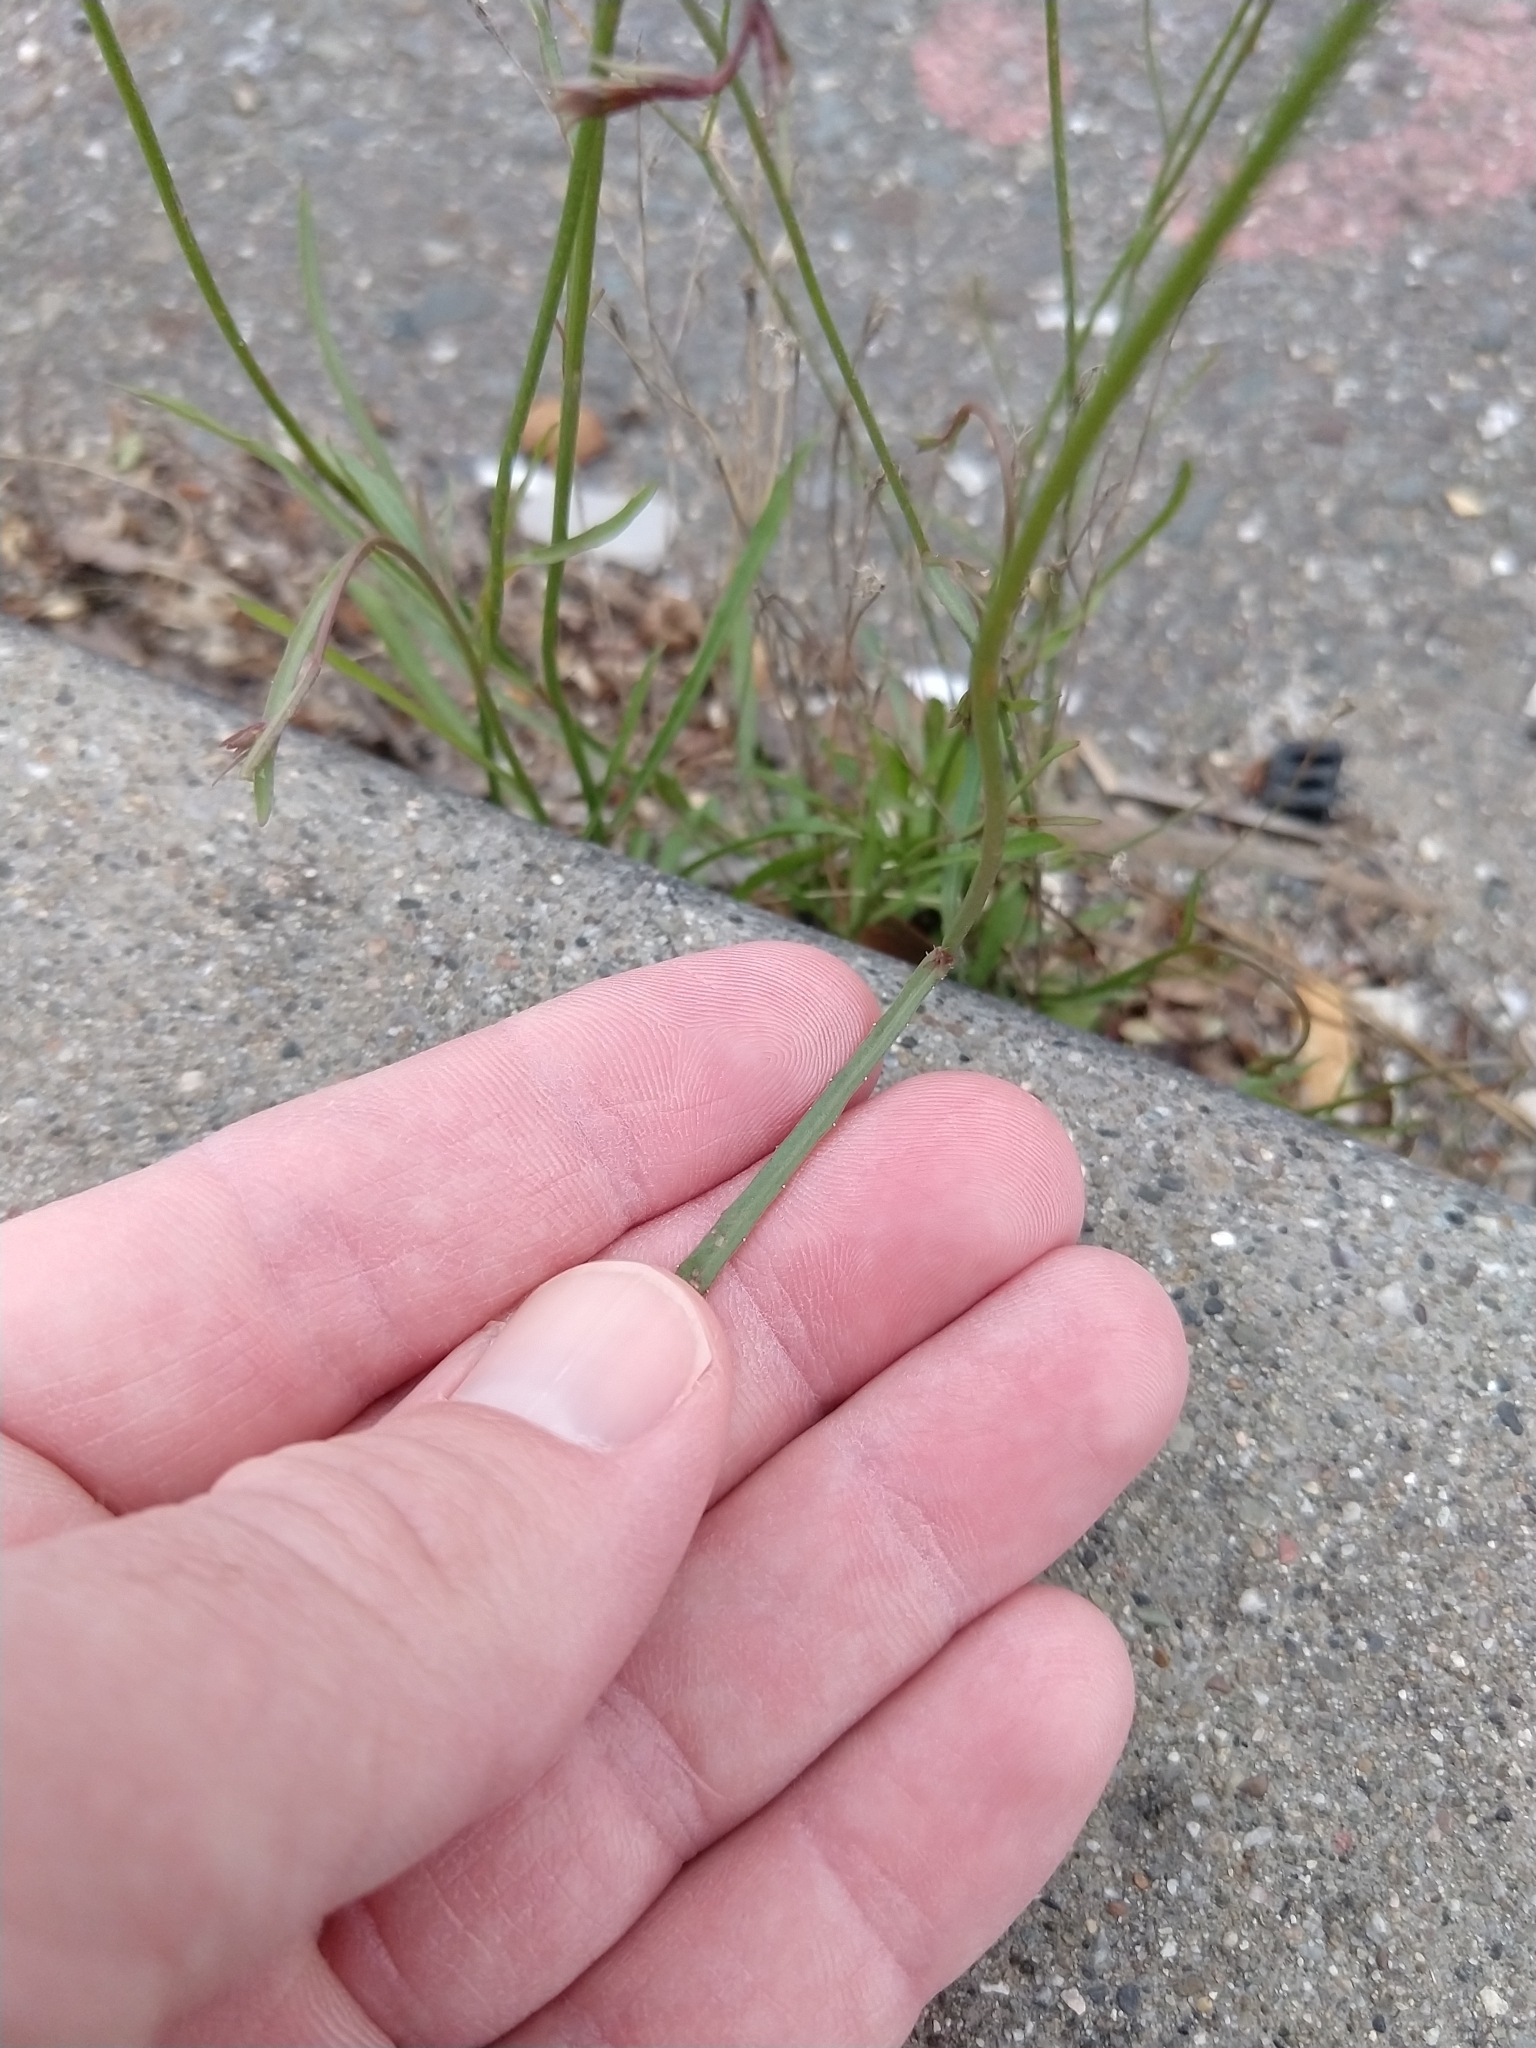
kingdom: Plantae
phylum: Tracheophyta
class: Magnoliopsida
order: Asterales
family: Campanulaceae
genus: Wahlenbergia
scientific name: Wahlenbergia marginata
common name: Southern rockbell
